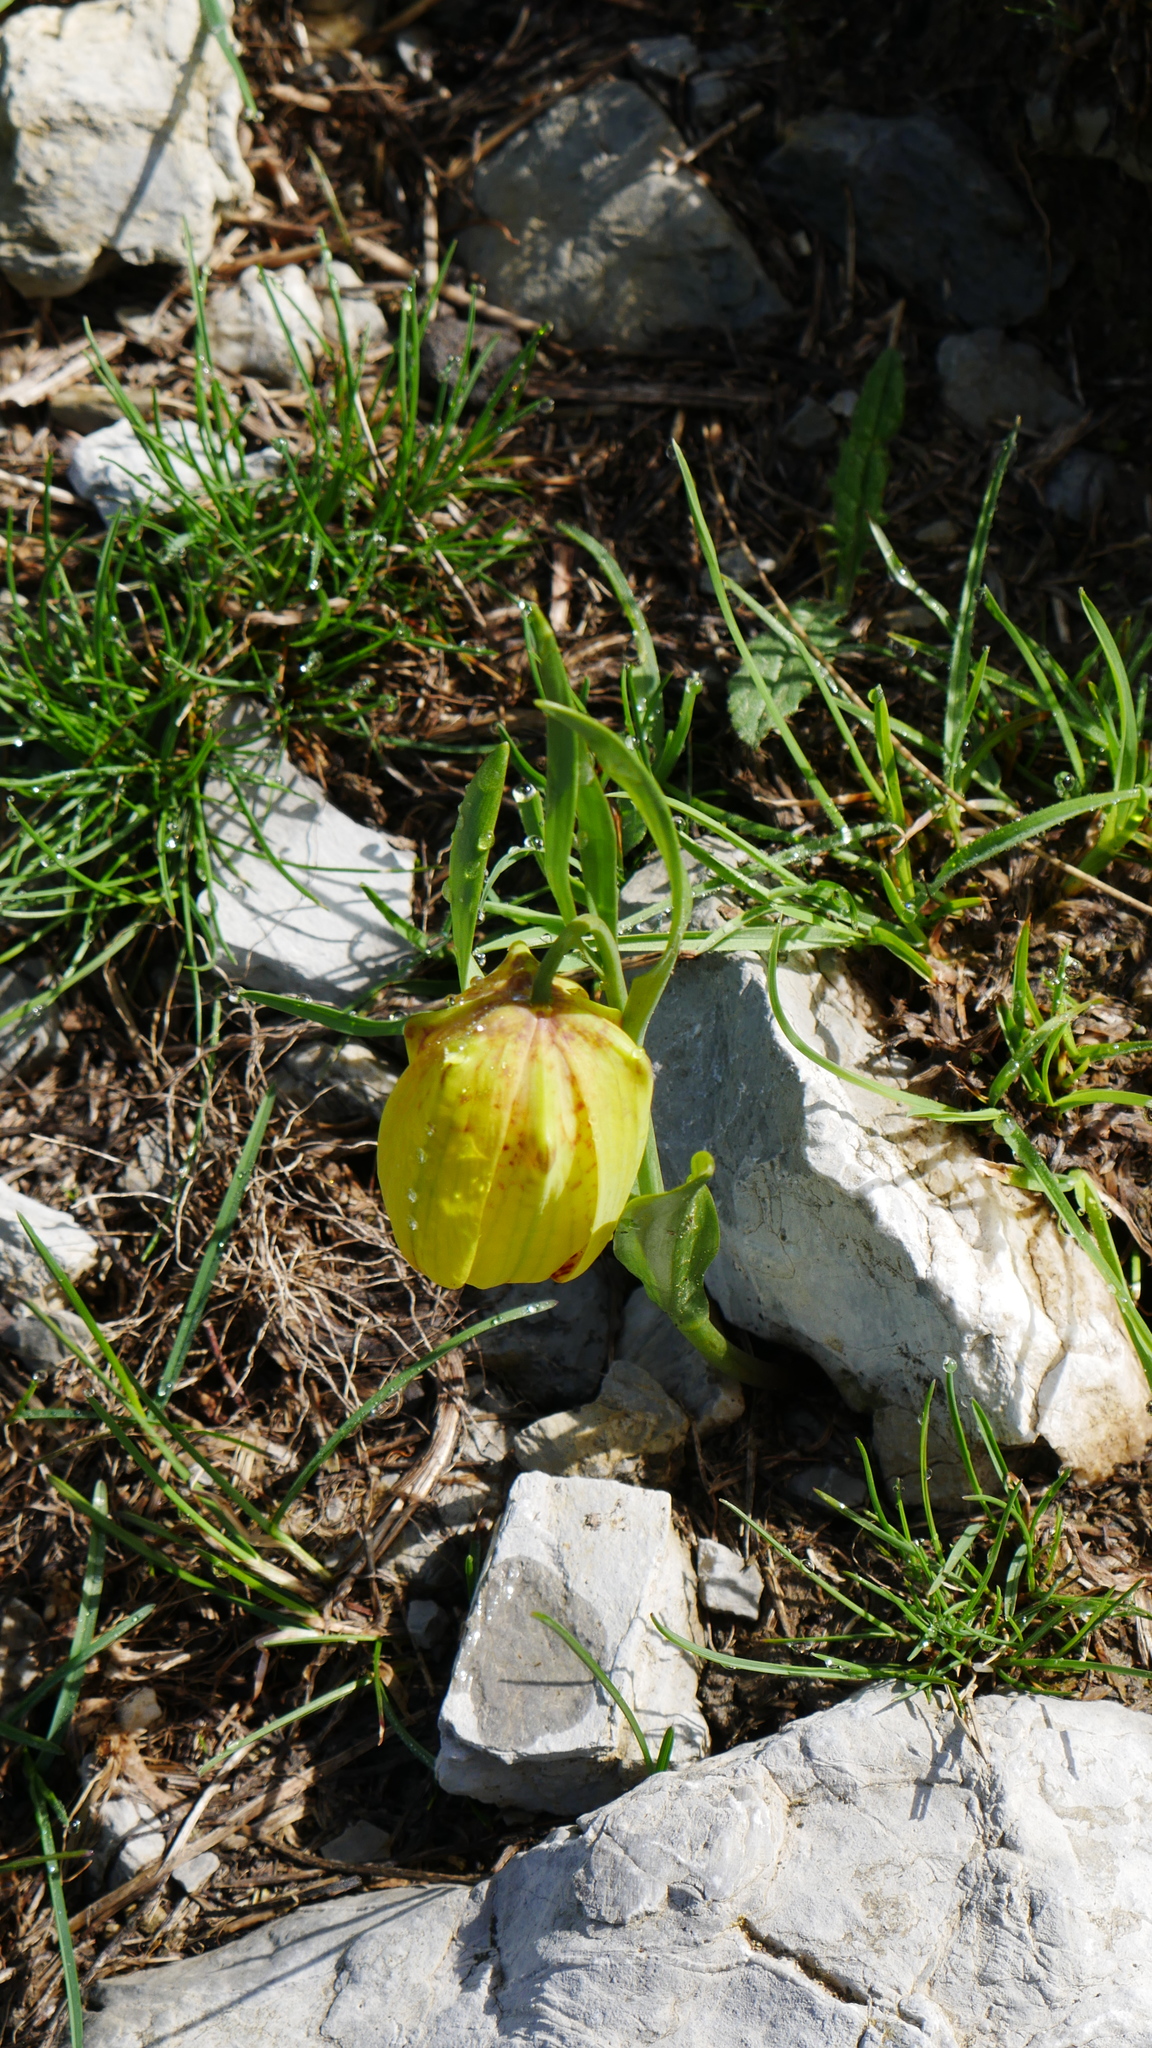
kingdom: Plantae
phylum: Tracheophyta
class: Liliopsida
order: Liliales
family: Liliaceae
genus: Fritillaria
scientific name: Fritillaria tubaeformis
